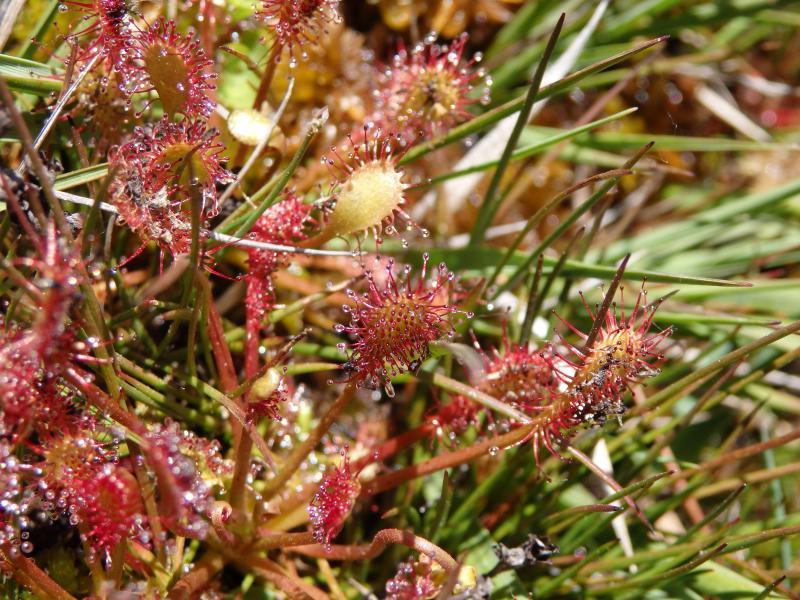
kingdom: Plantae
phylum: Tracheophyta
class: Magnoliopsida
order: Caryophyllales
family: Droseraceae
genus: Drosera
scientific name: Drosera intermedia
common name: Oblong-leaved sundew
